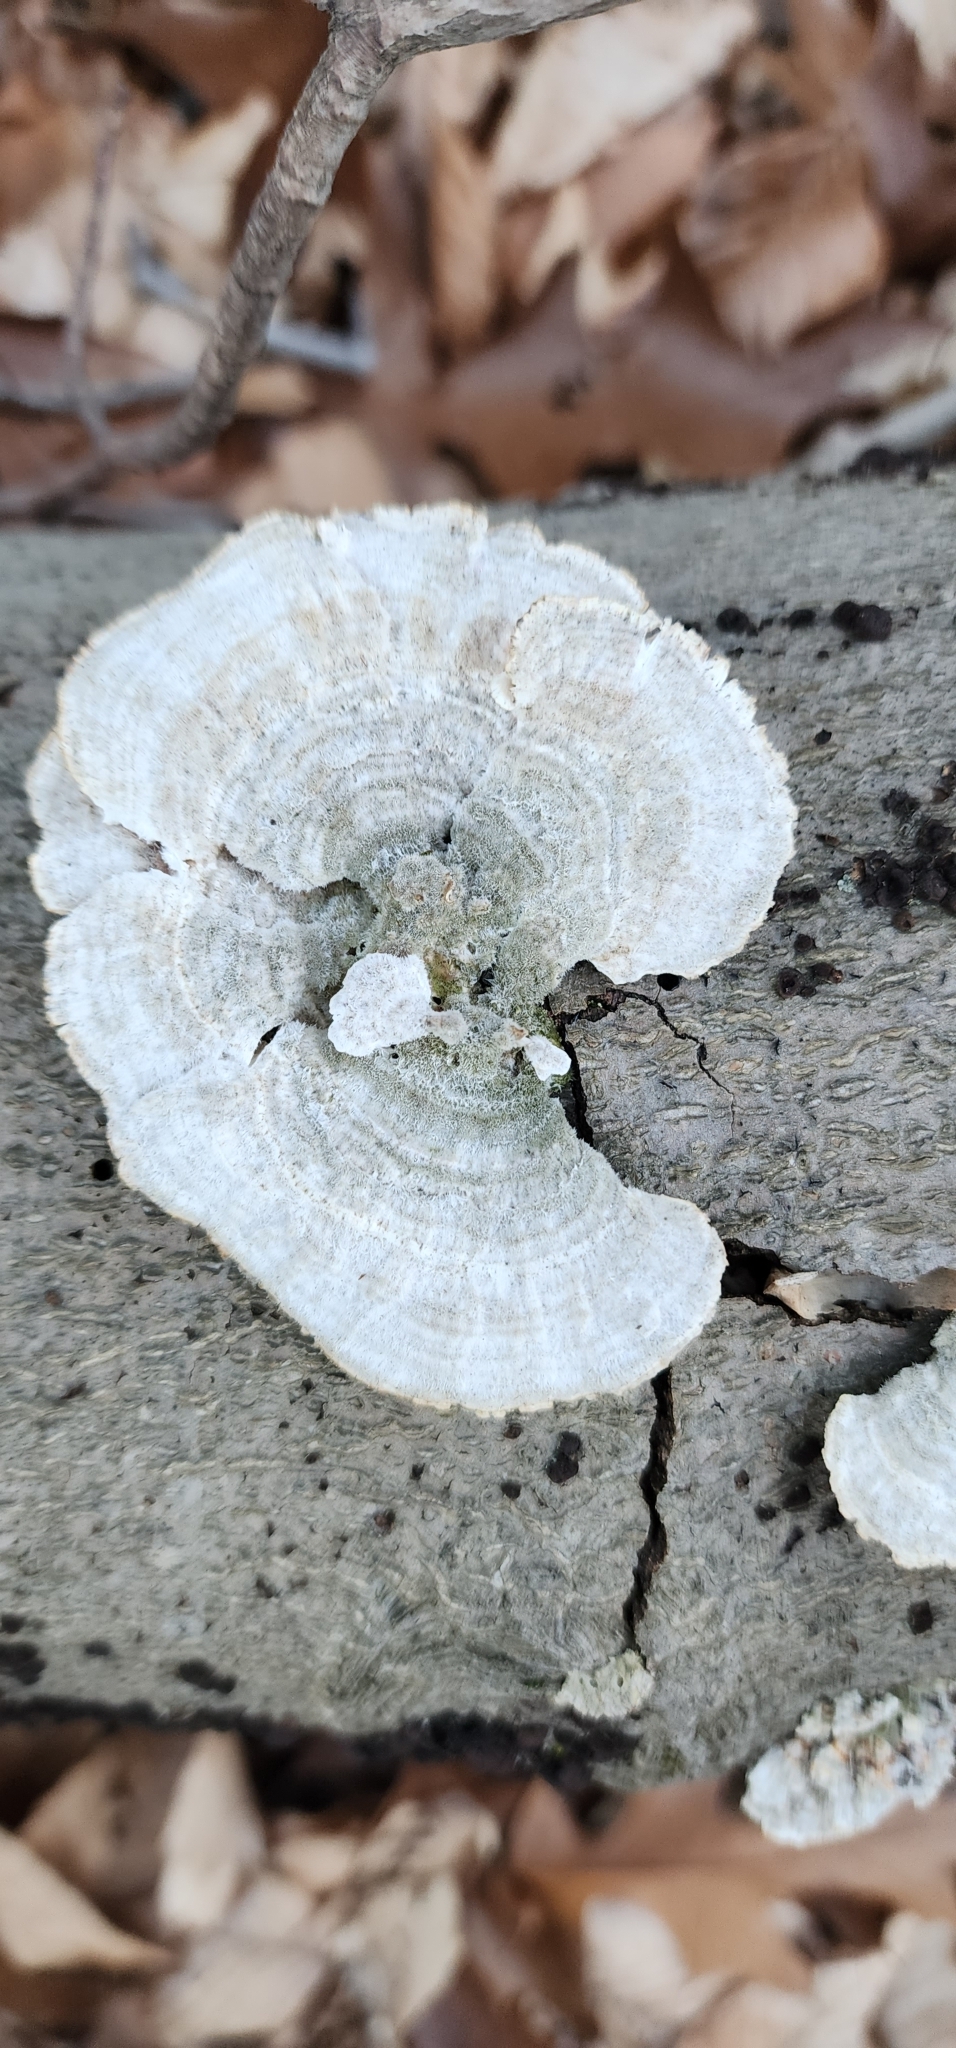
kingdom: Fungi
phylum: Basidiomycota
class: Agaricomycetes
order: Polyporales
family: Polyporaceae
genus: Lenzites
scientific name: Lenzites betulinus
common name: Birch mazegill
